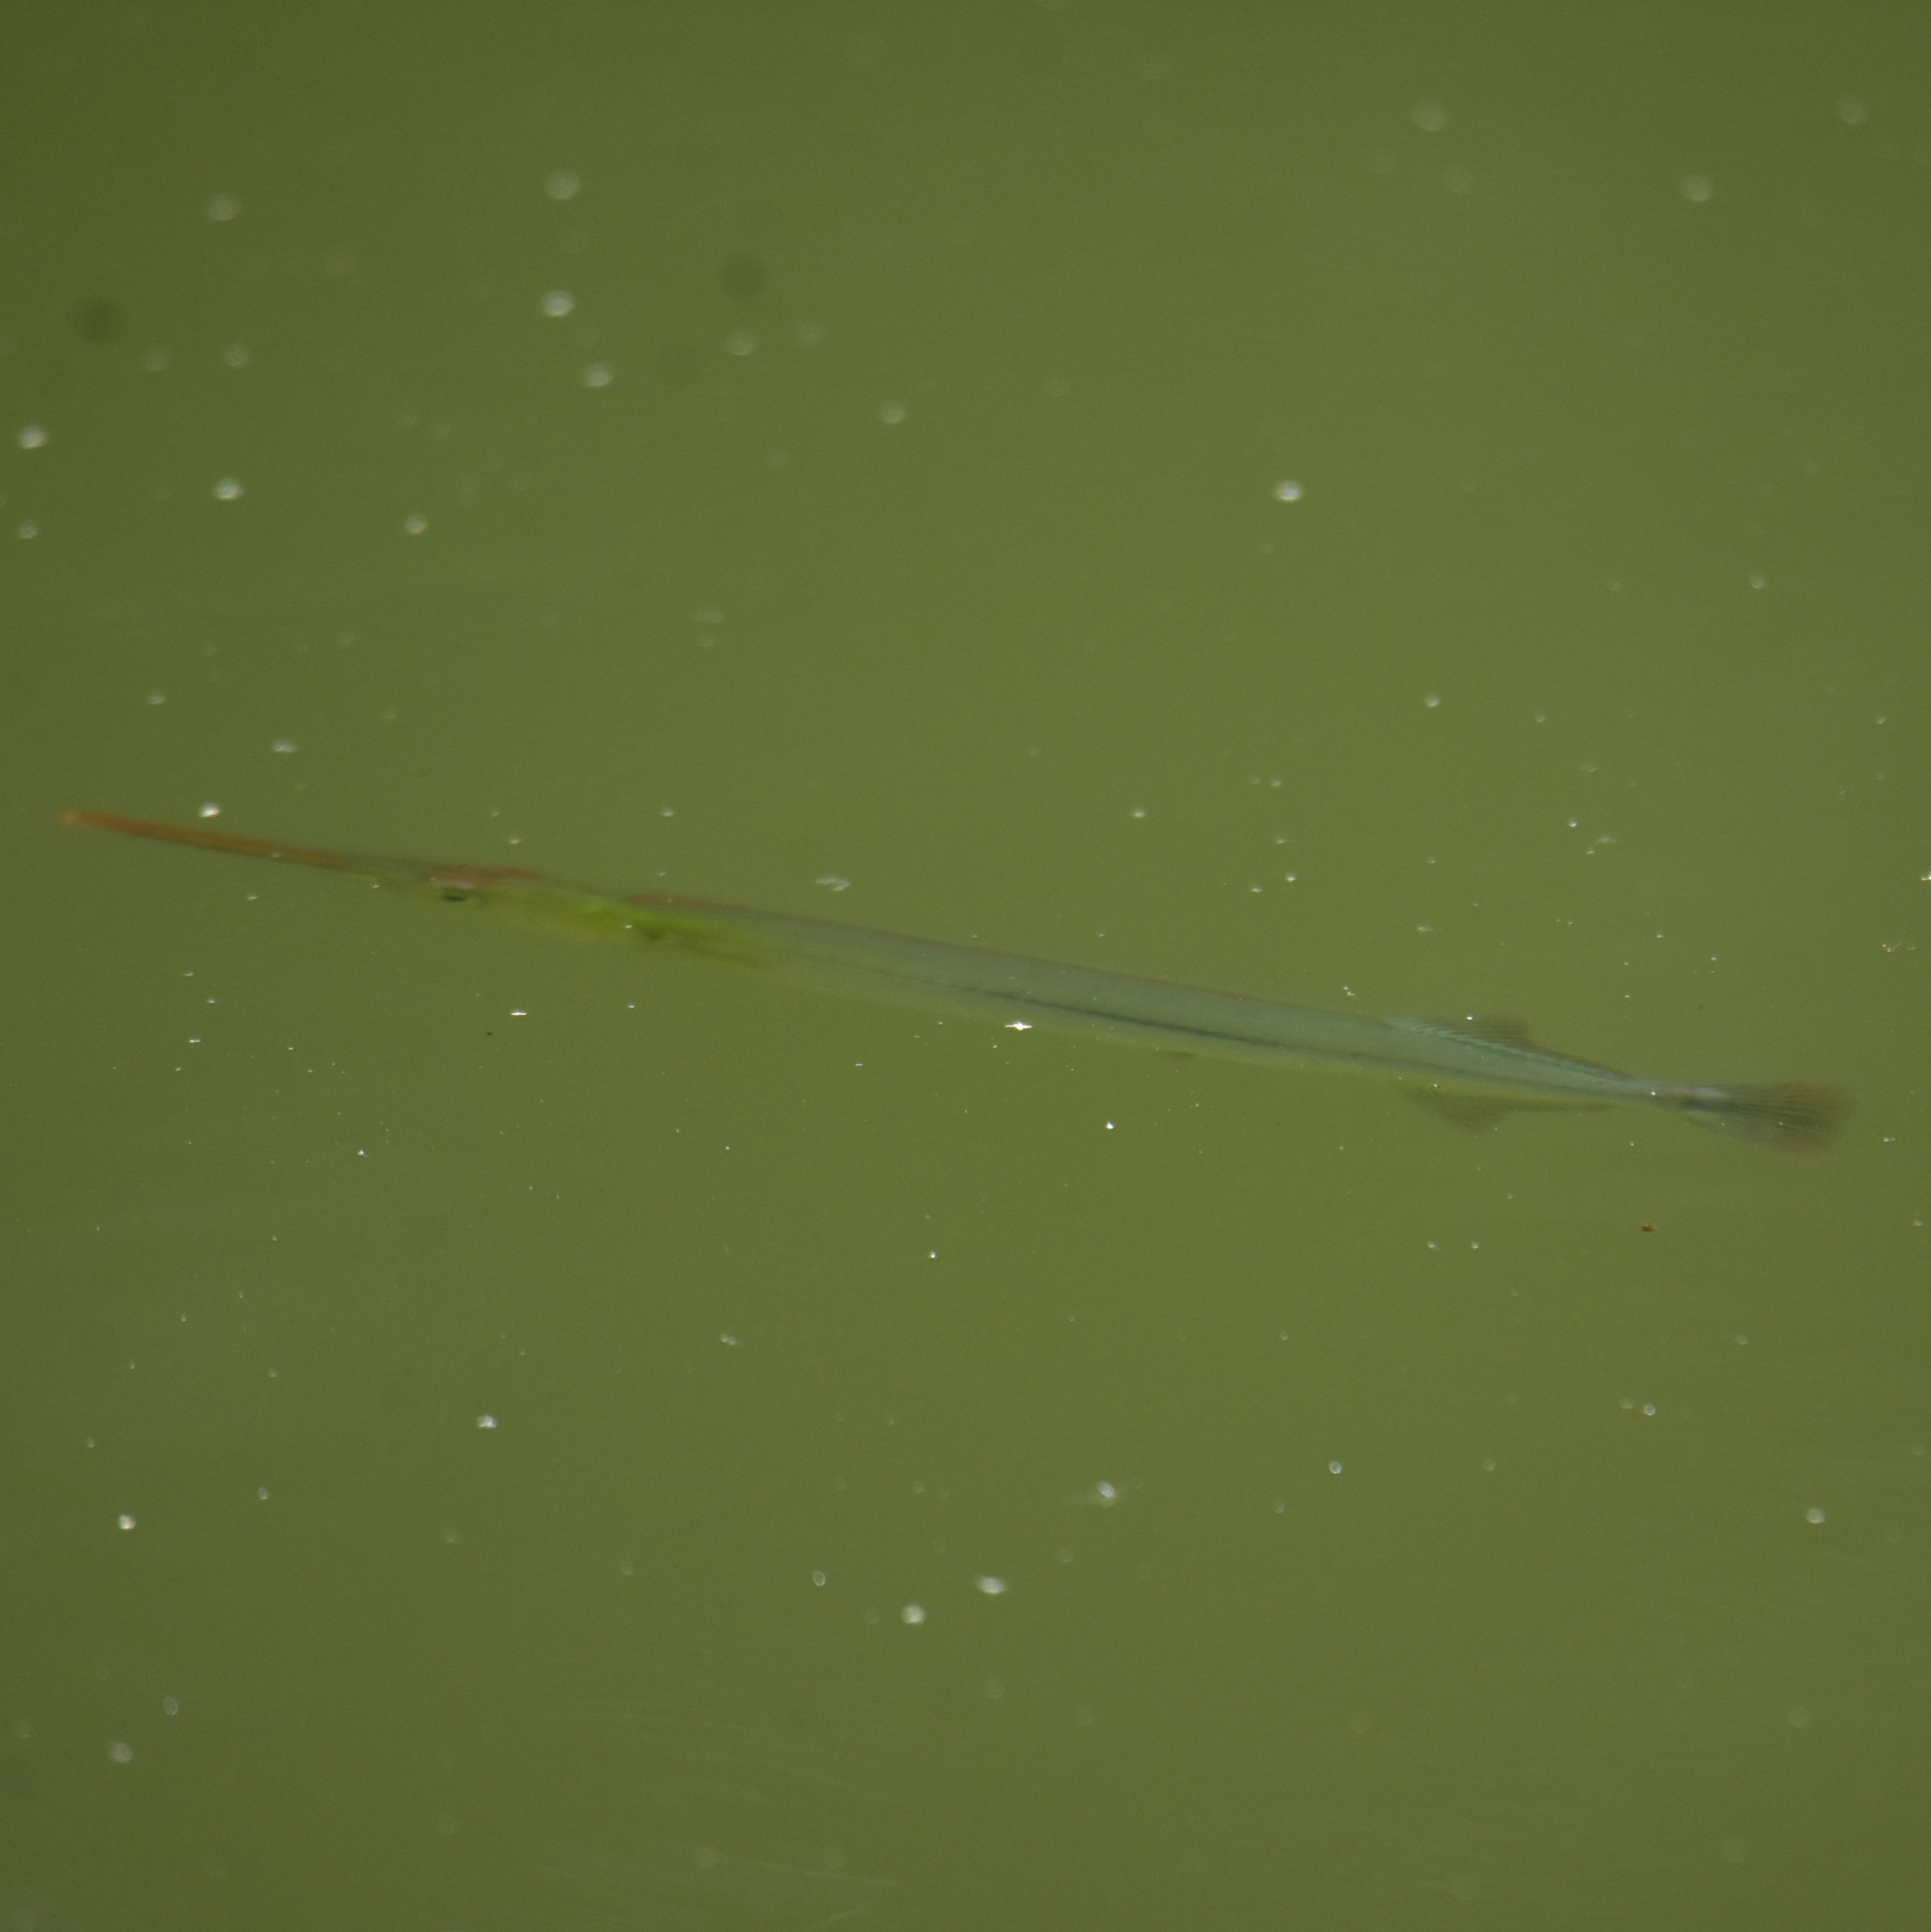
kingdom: Animalia
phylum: Chordata
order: Beloniformes
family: Belonidae
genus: Xenentodon
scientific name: Xenentodon cancila
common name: Freshwater garfish
